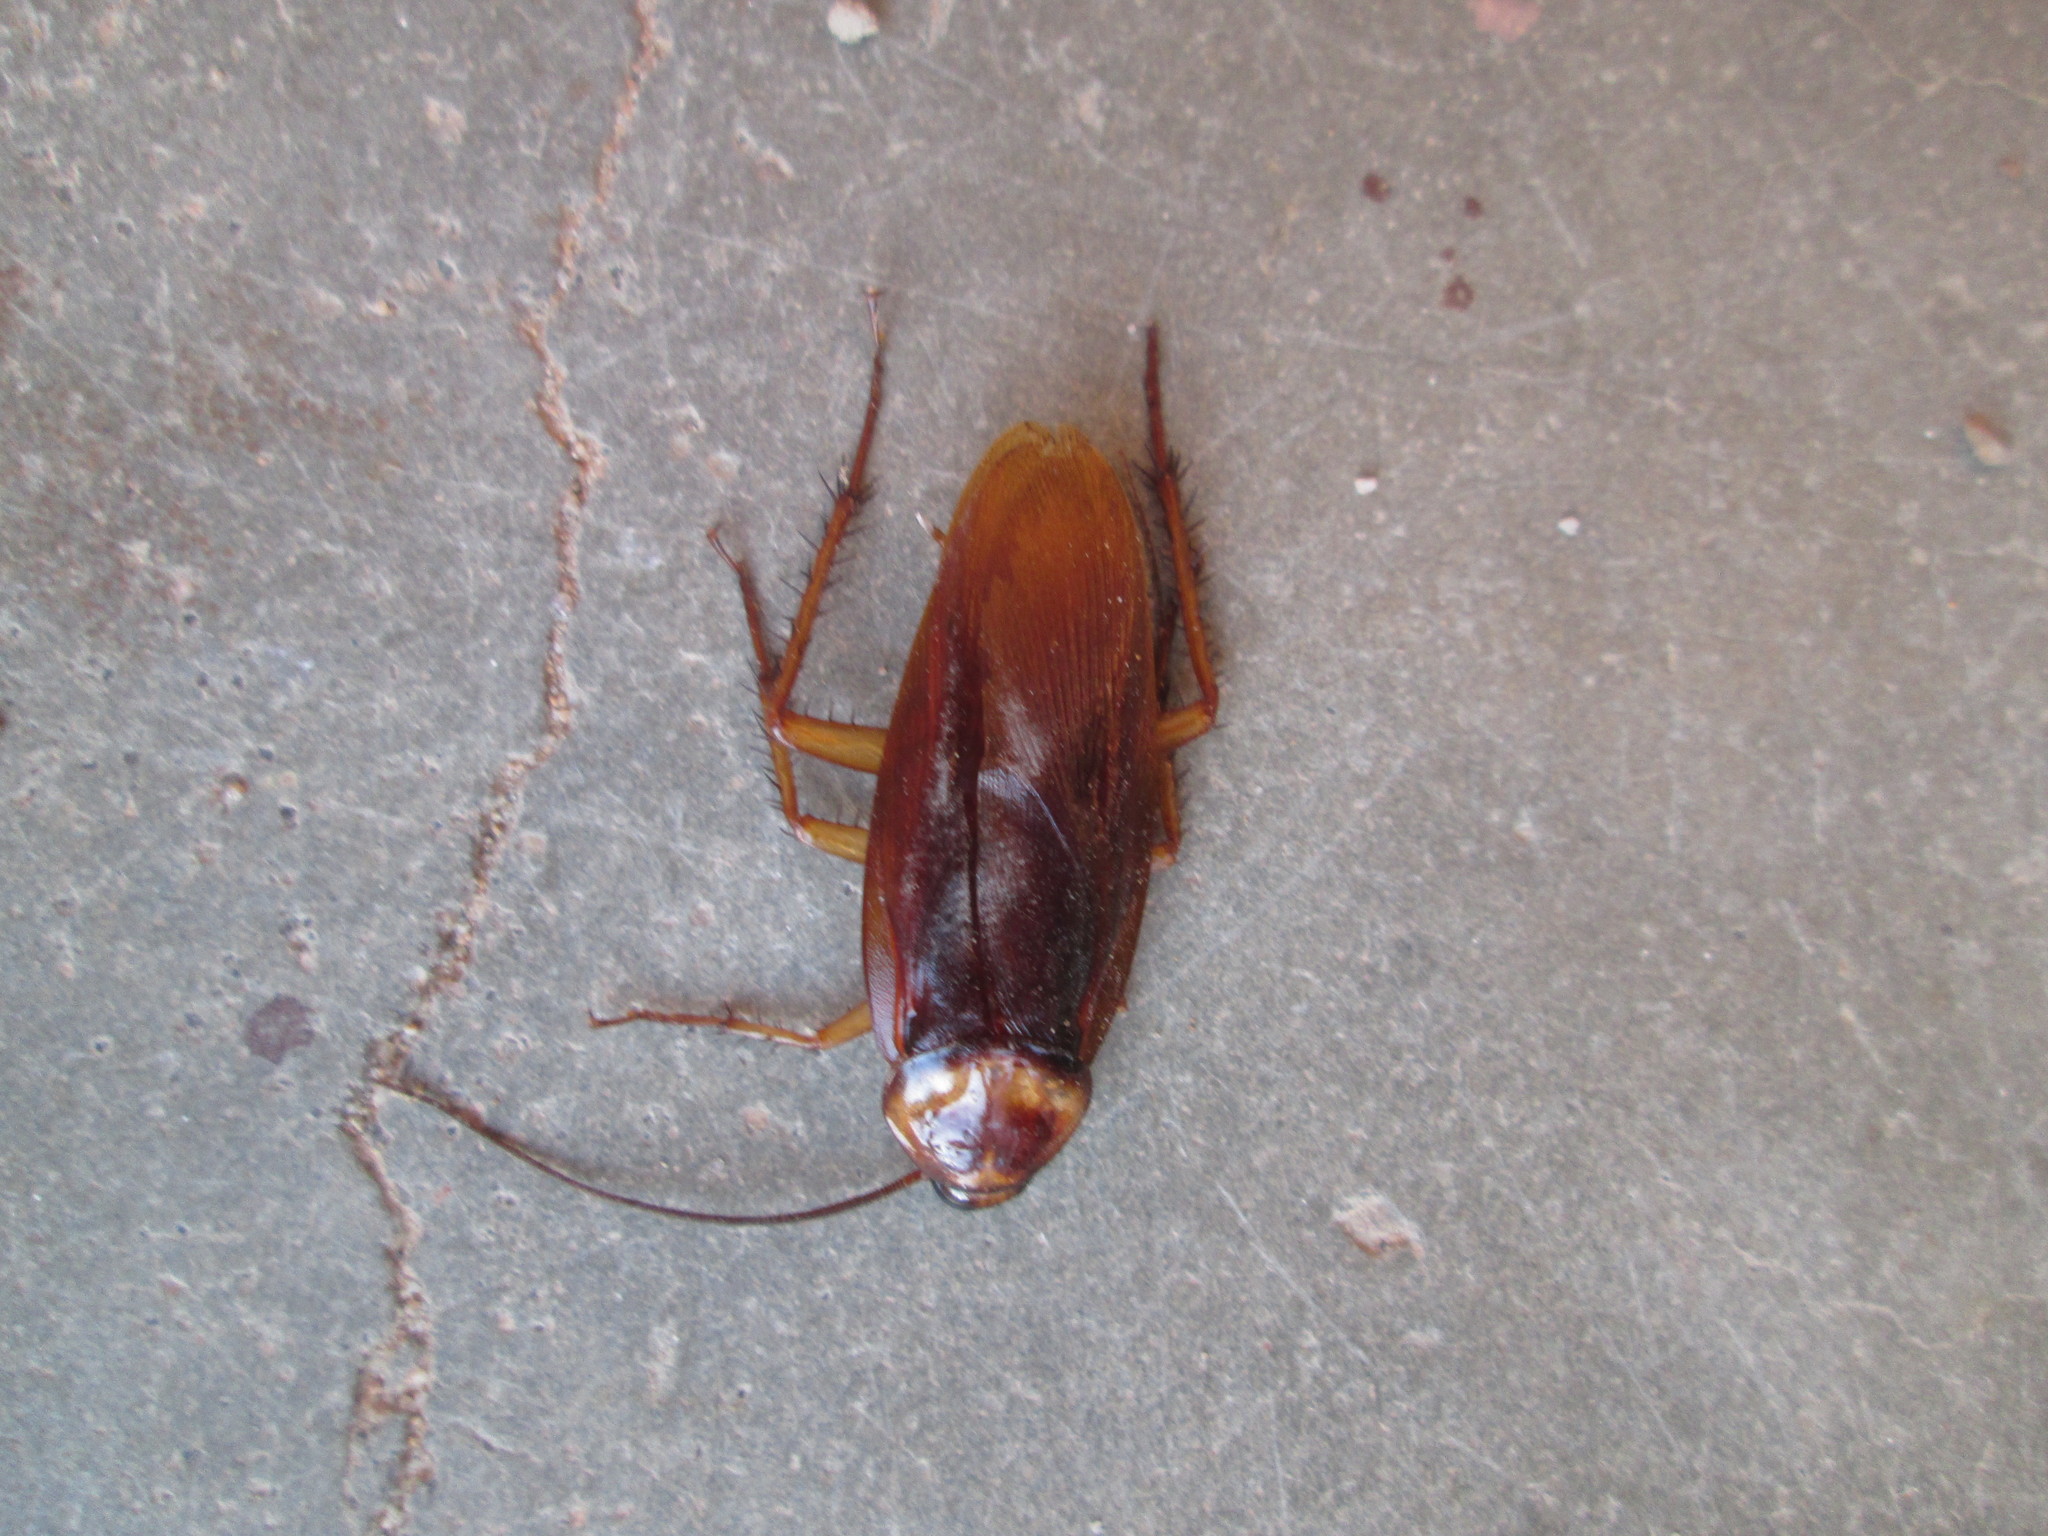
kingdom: Animalia
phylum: Arthropoda
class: Insecta
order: Blattodea
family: Blattidae
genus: Periplaneta
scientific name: Periplaneta americana
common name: American cockroach
